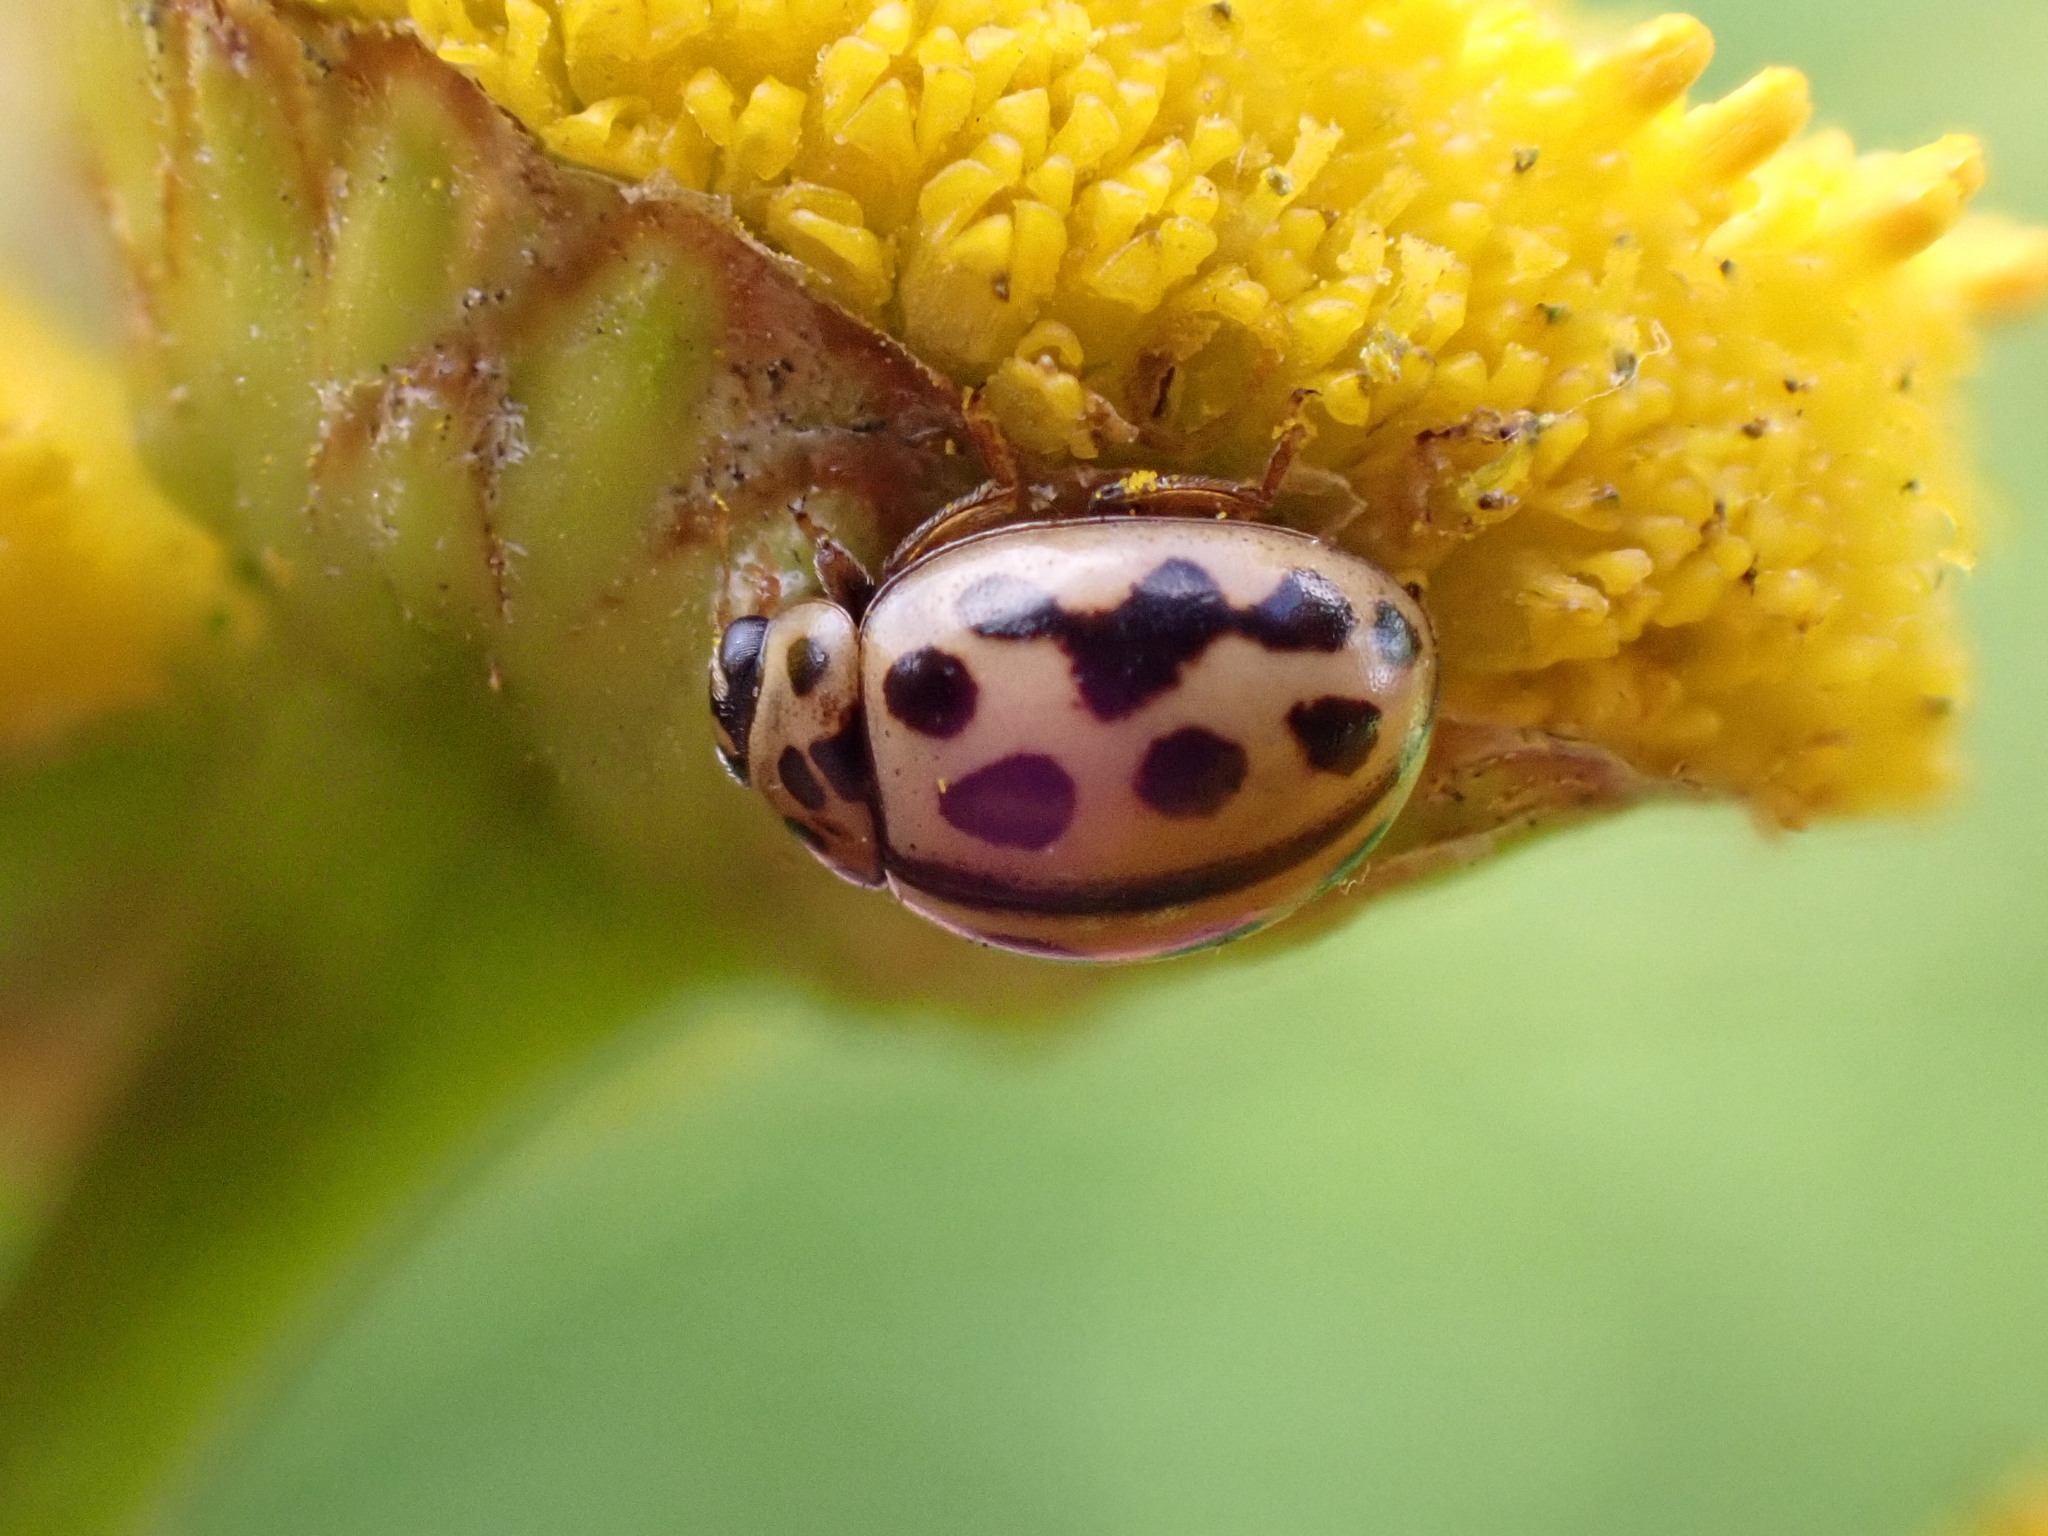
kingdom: Animalia
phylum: Arthropoda
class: Insecta
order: Coleoptera
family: Coccinellidae
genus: Tytthaspis
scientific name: Tytthaspis sedecimpunctata
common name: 16-spot ladybird
